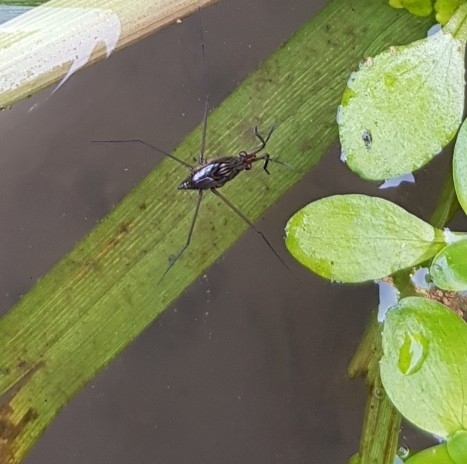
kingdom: Animalia
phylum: Arthropoda
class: Insecta
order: Hemiptera
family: Gerridae
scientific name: Gerridae
